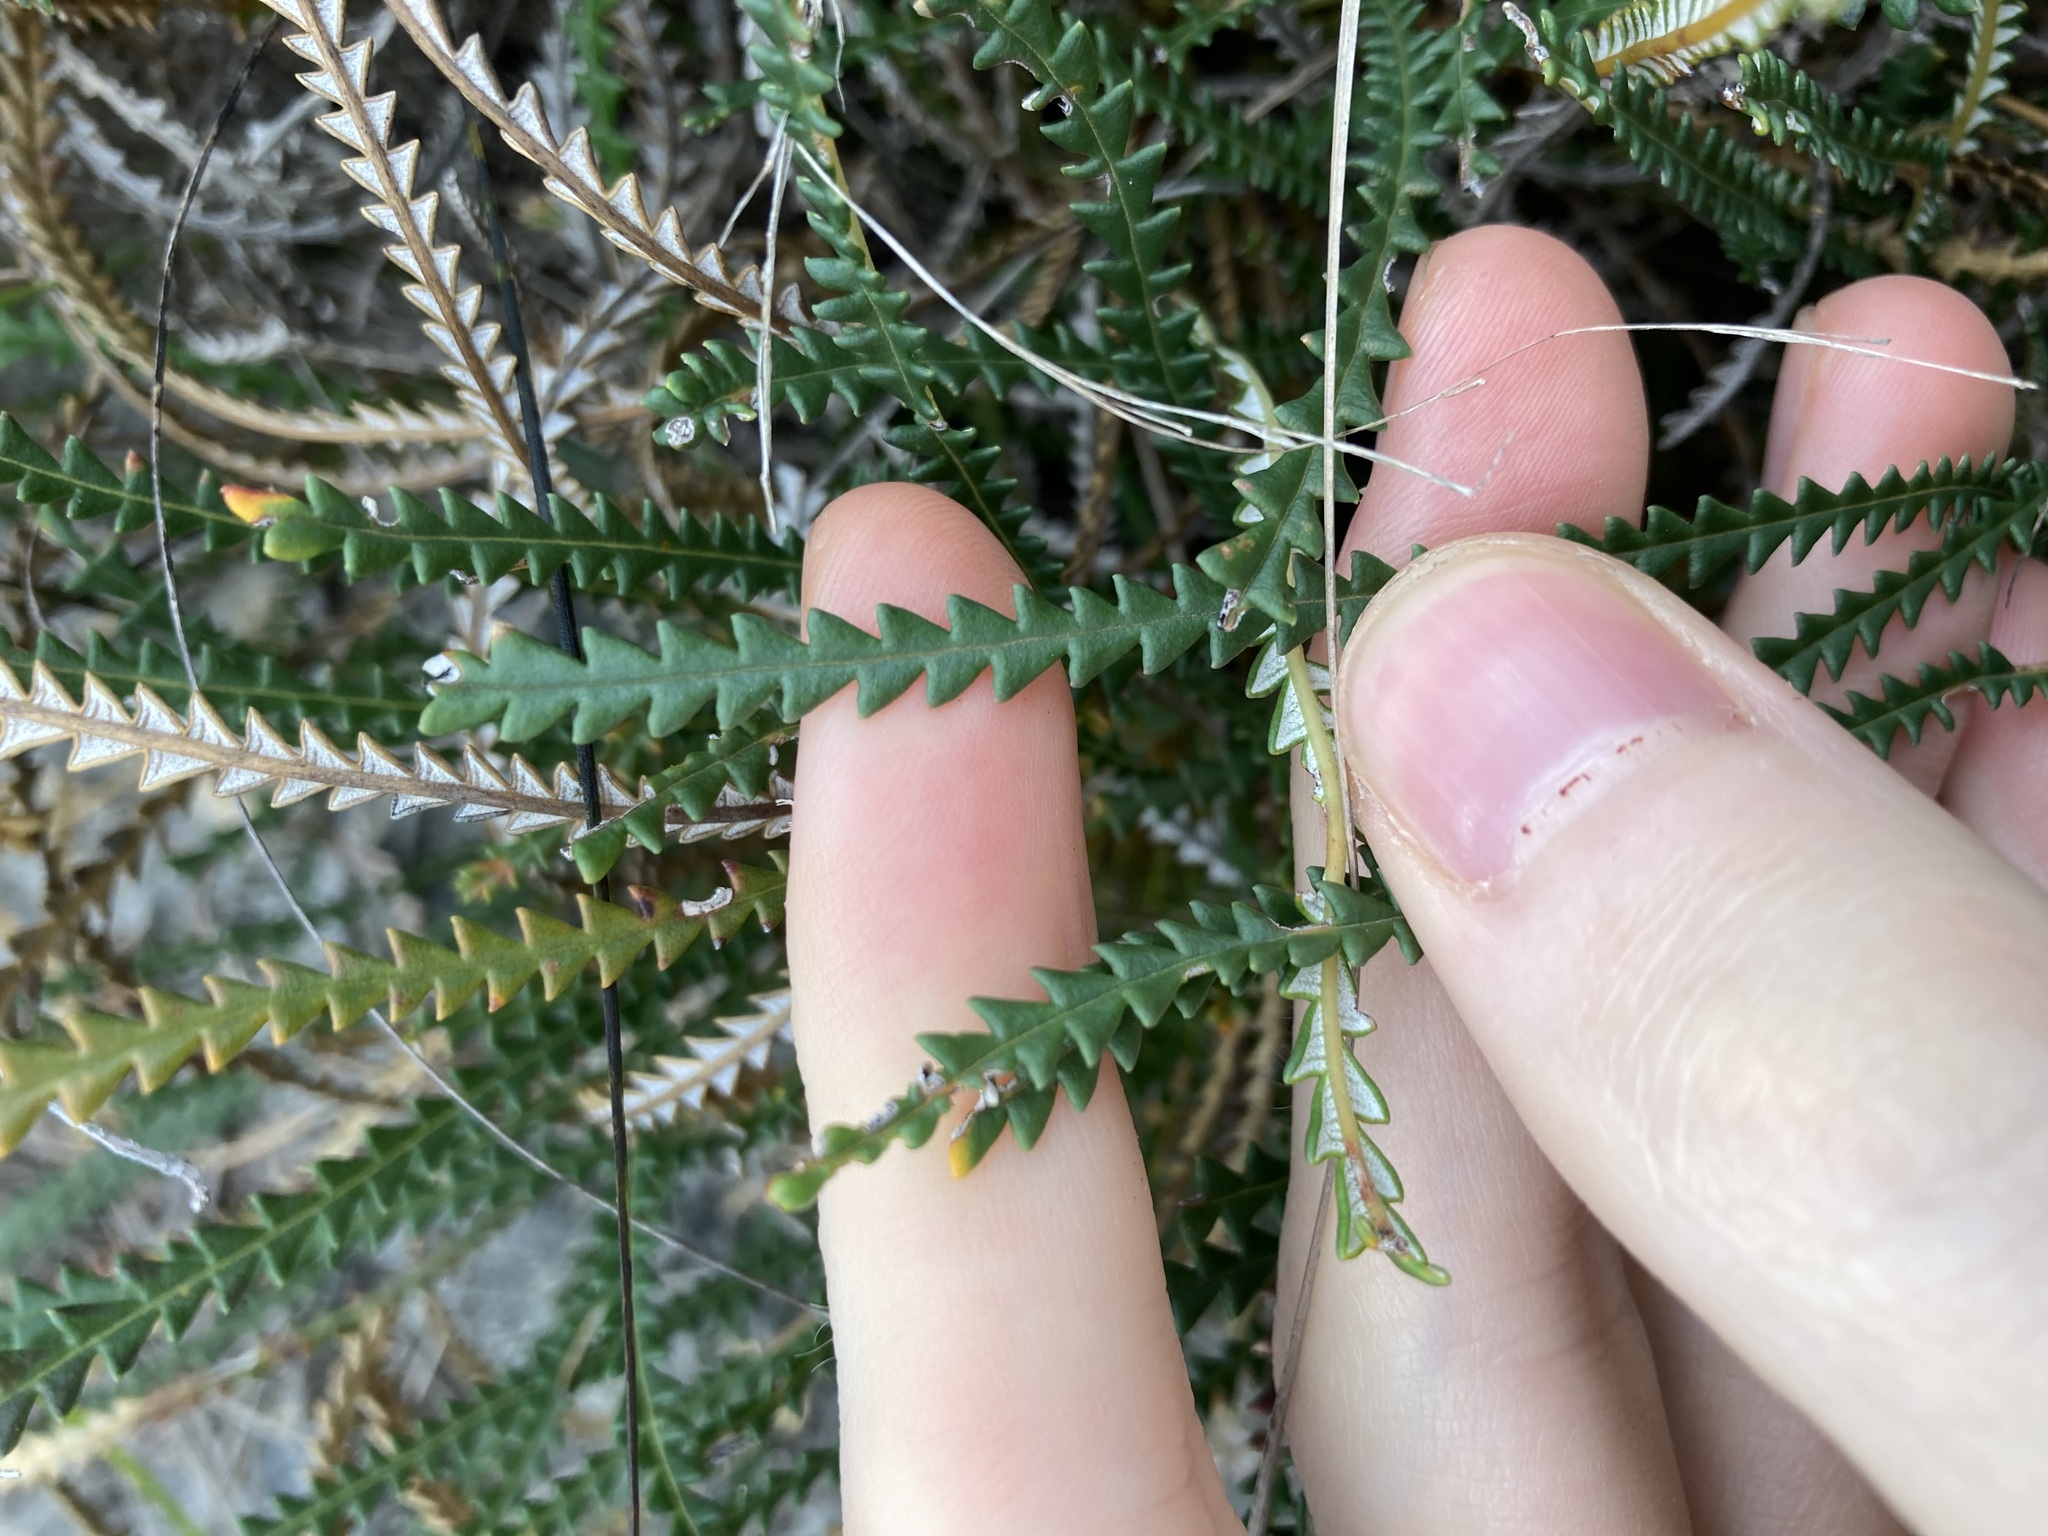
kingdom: Plantae
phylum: Tracheophyta
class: Magnoliopsida
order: Proteales
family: Proteaceae
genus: Banksia
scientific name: Banksia dallanneyi
